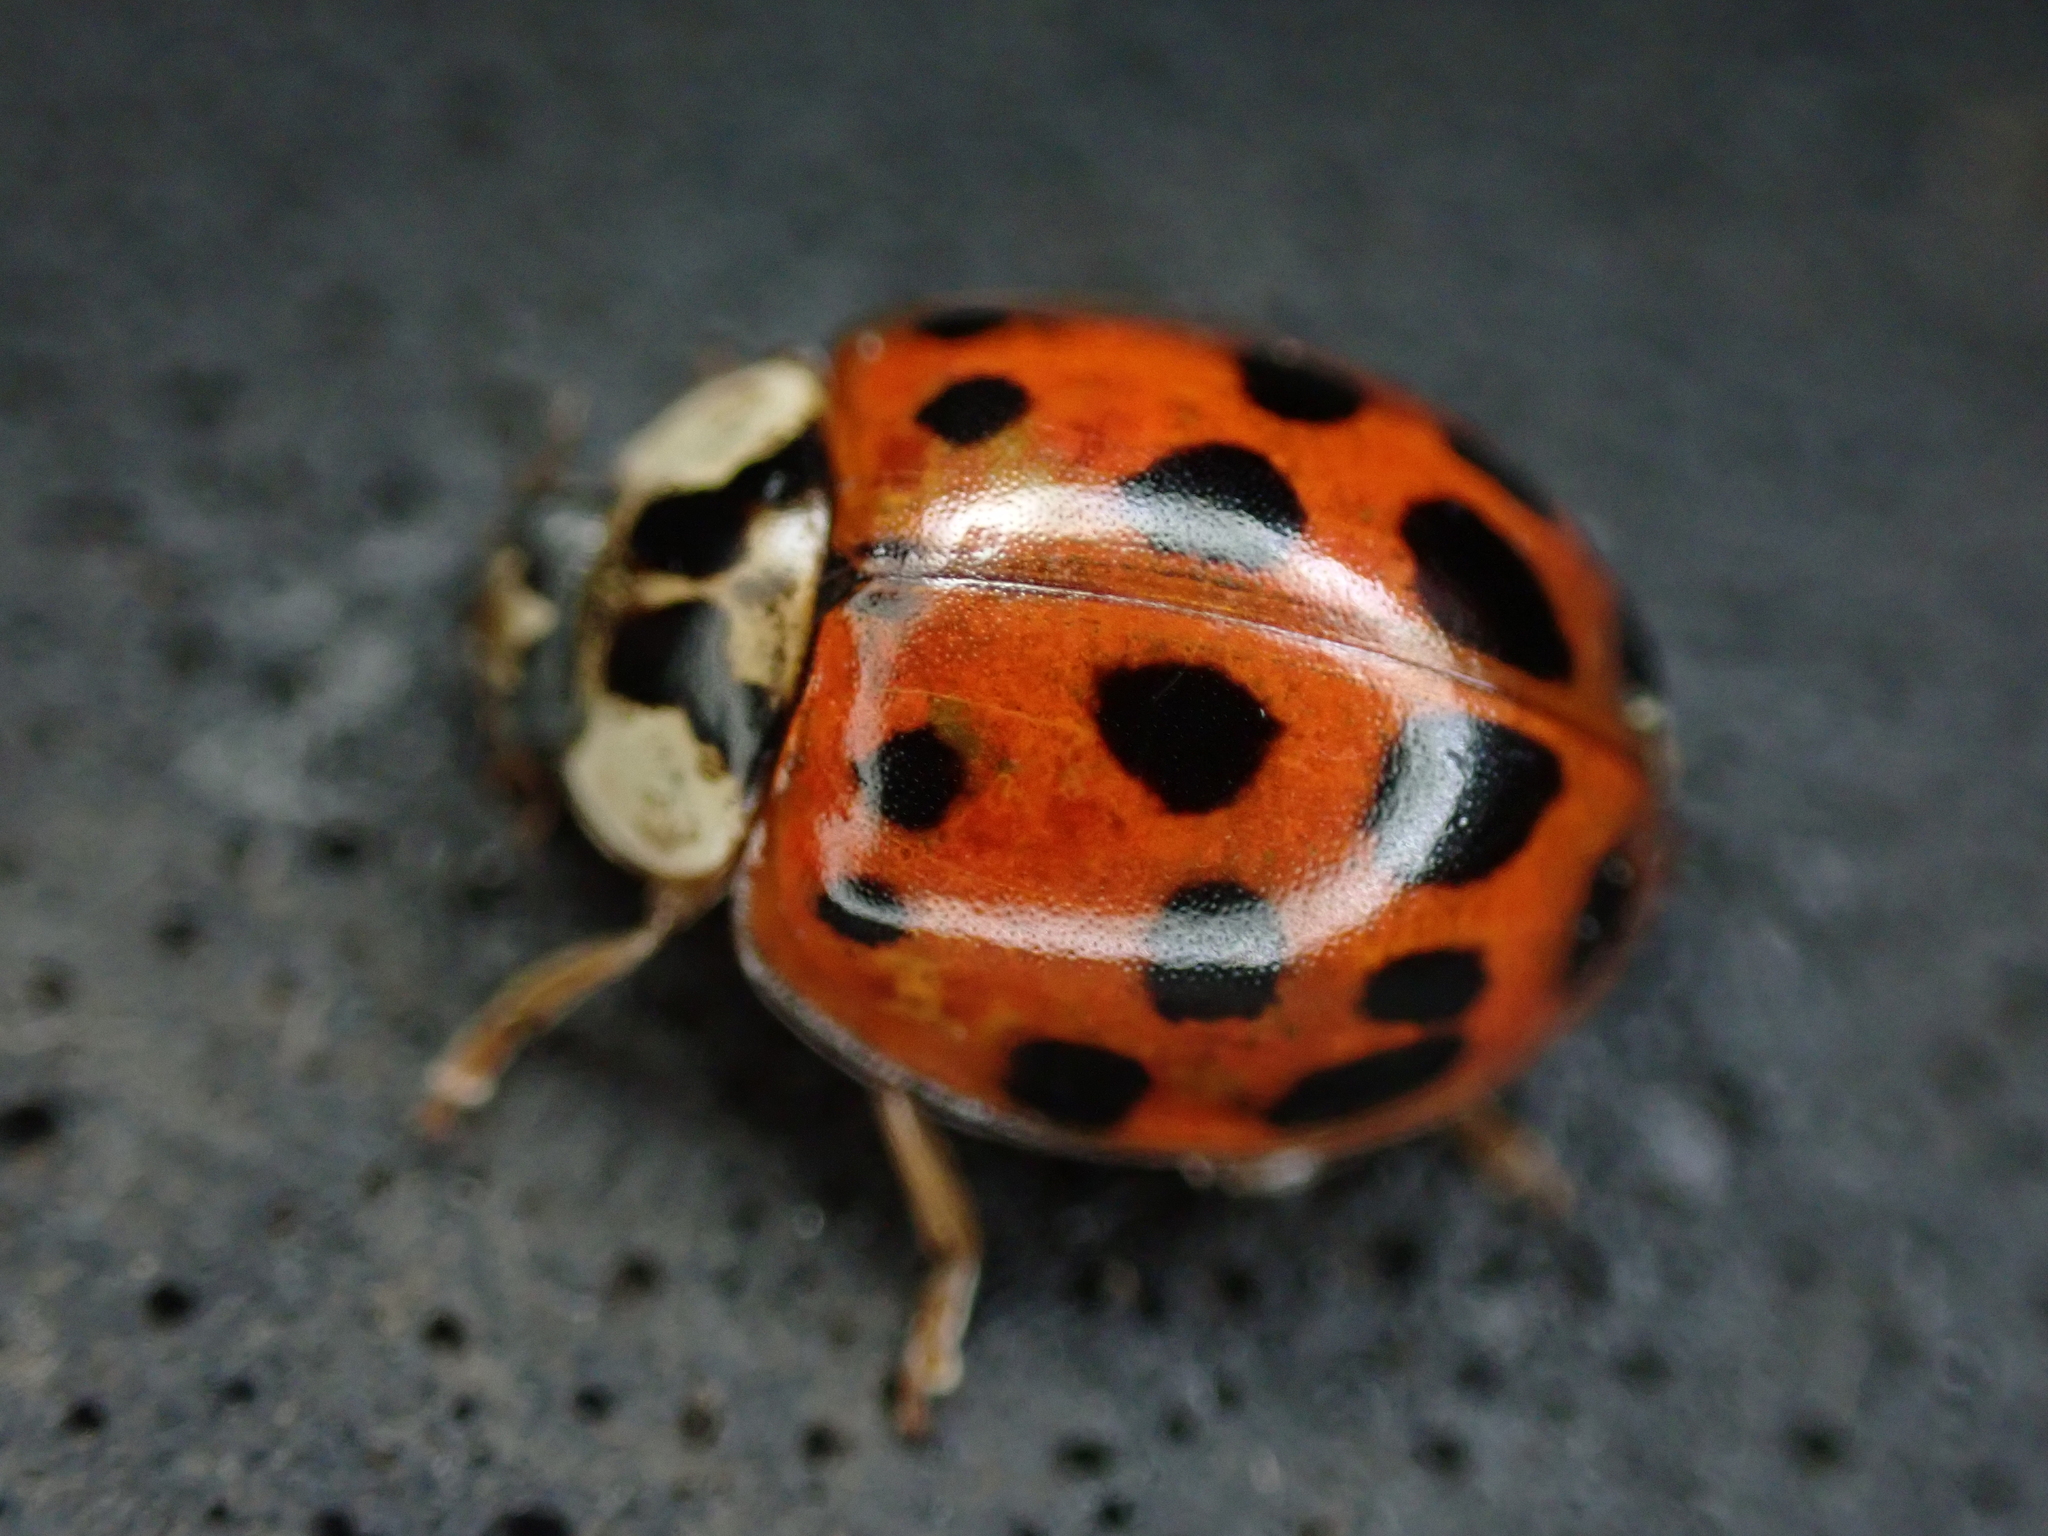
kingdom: Animalia
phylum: Arthropoda
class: Insecta
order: Coleoptera
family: Coccinellidae
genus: Harmonia
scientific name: Harmonia axyridis
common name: Harlequin ladybird
